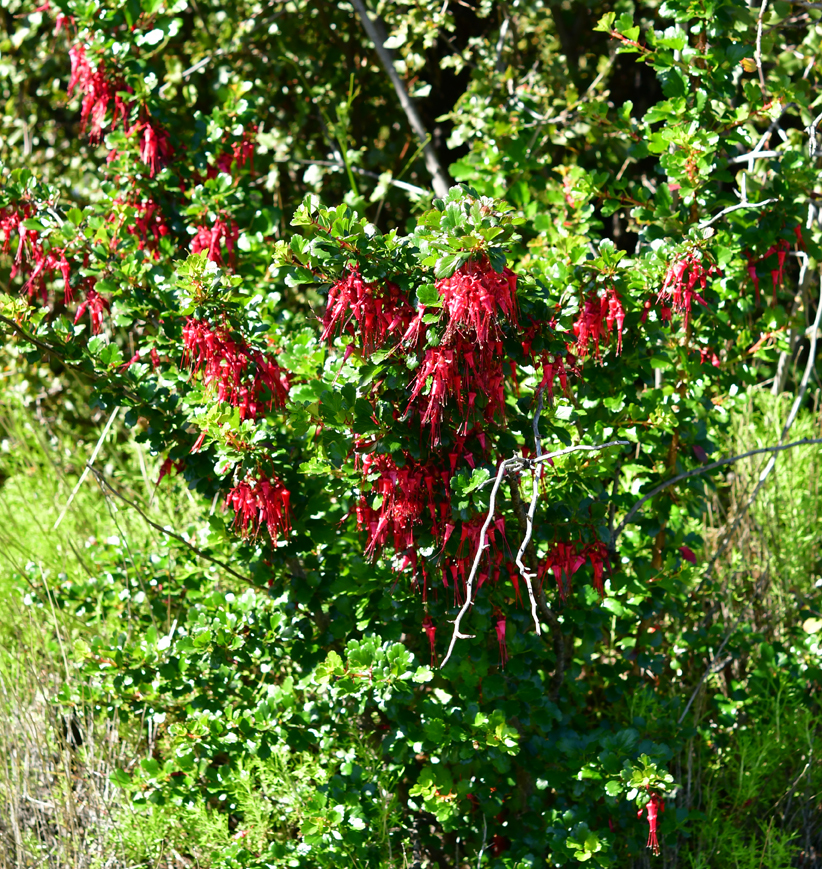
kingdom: Plantae
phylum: Tracheophyta
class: Magnoliopsida
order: Saxifragales
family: Grossulariaceae
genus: Ribes
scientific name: Ribes speciosum
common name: Fuchsia-flower gooseberry
